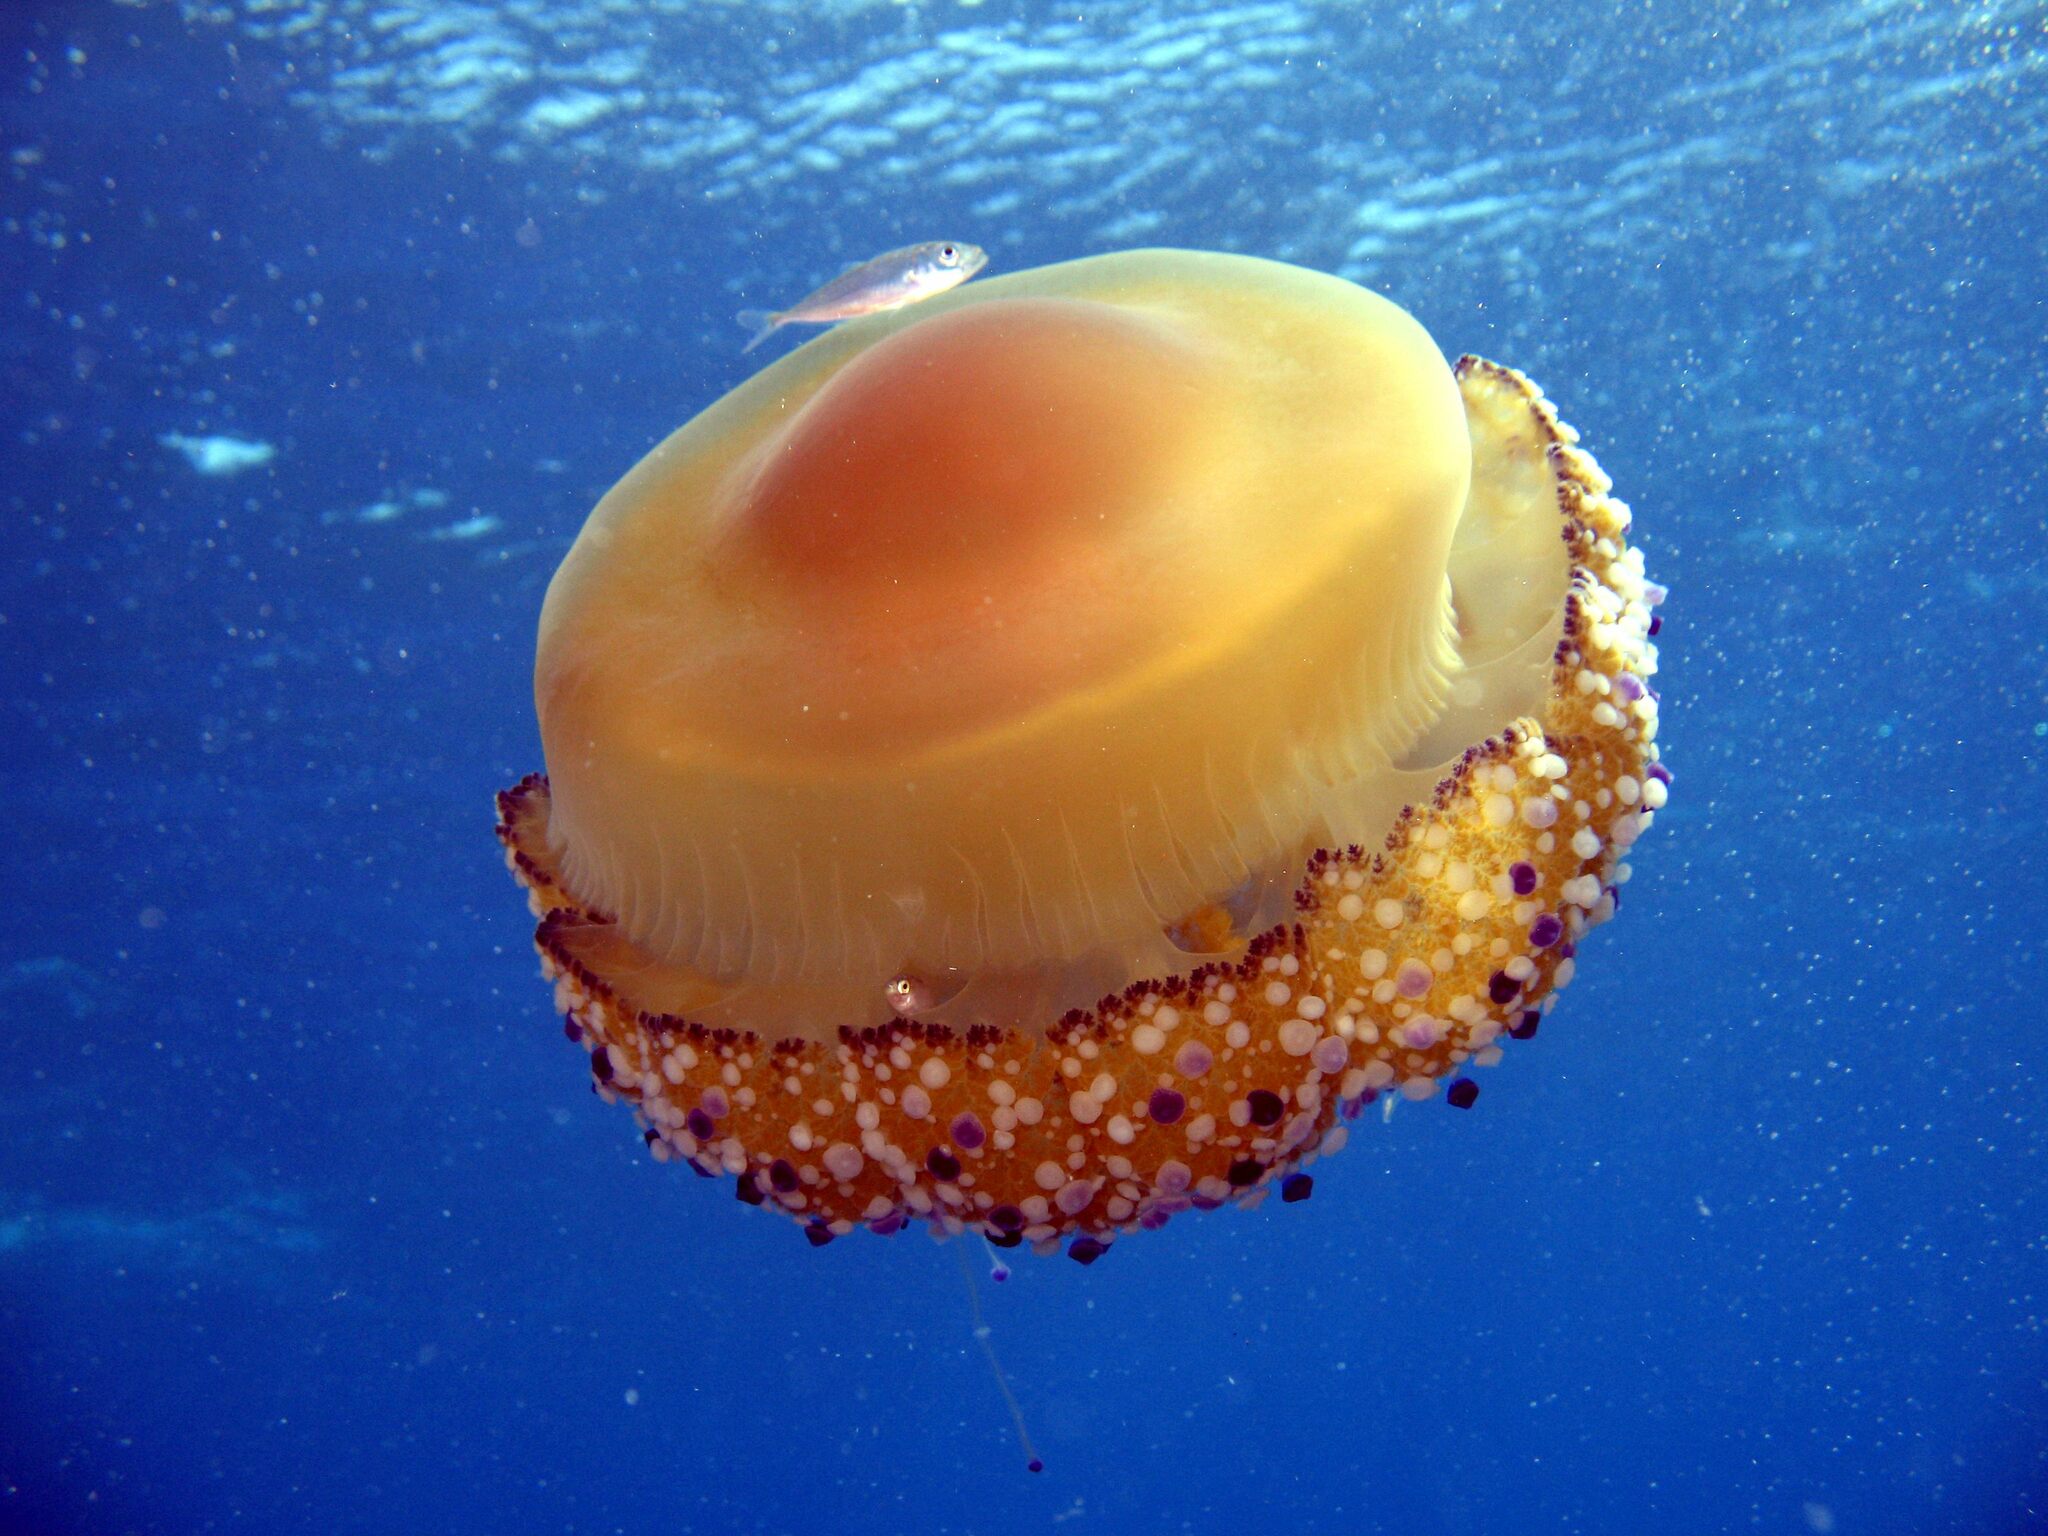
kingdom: Animalia
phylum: Cnidaria
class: Scyphozoa
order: Rhizostomeae
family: Cepheidae
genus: Cotylorhiza
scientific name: Cotylorhiza tuberculata
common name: Mediterranean jelly
